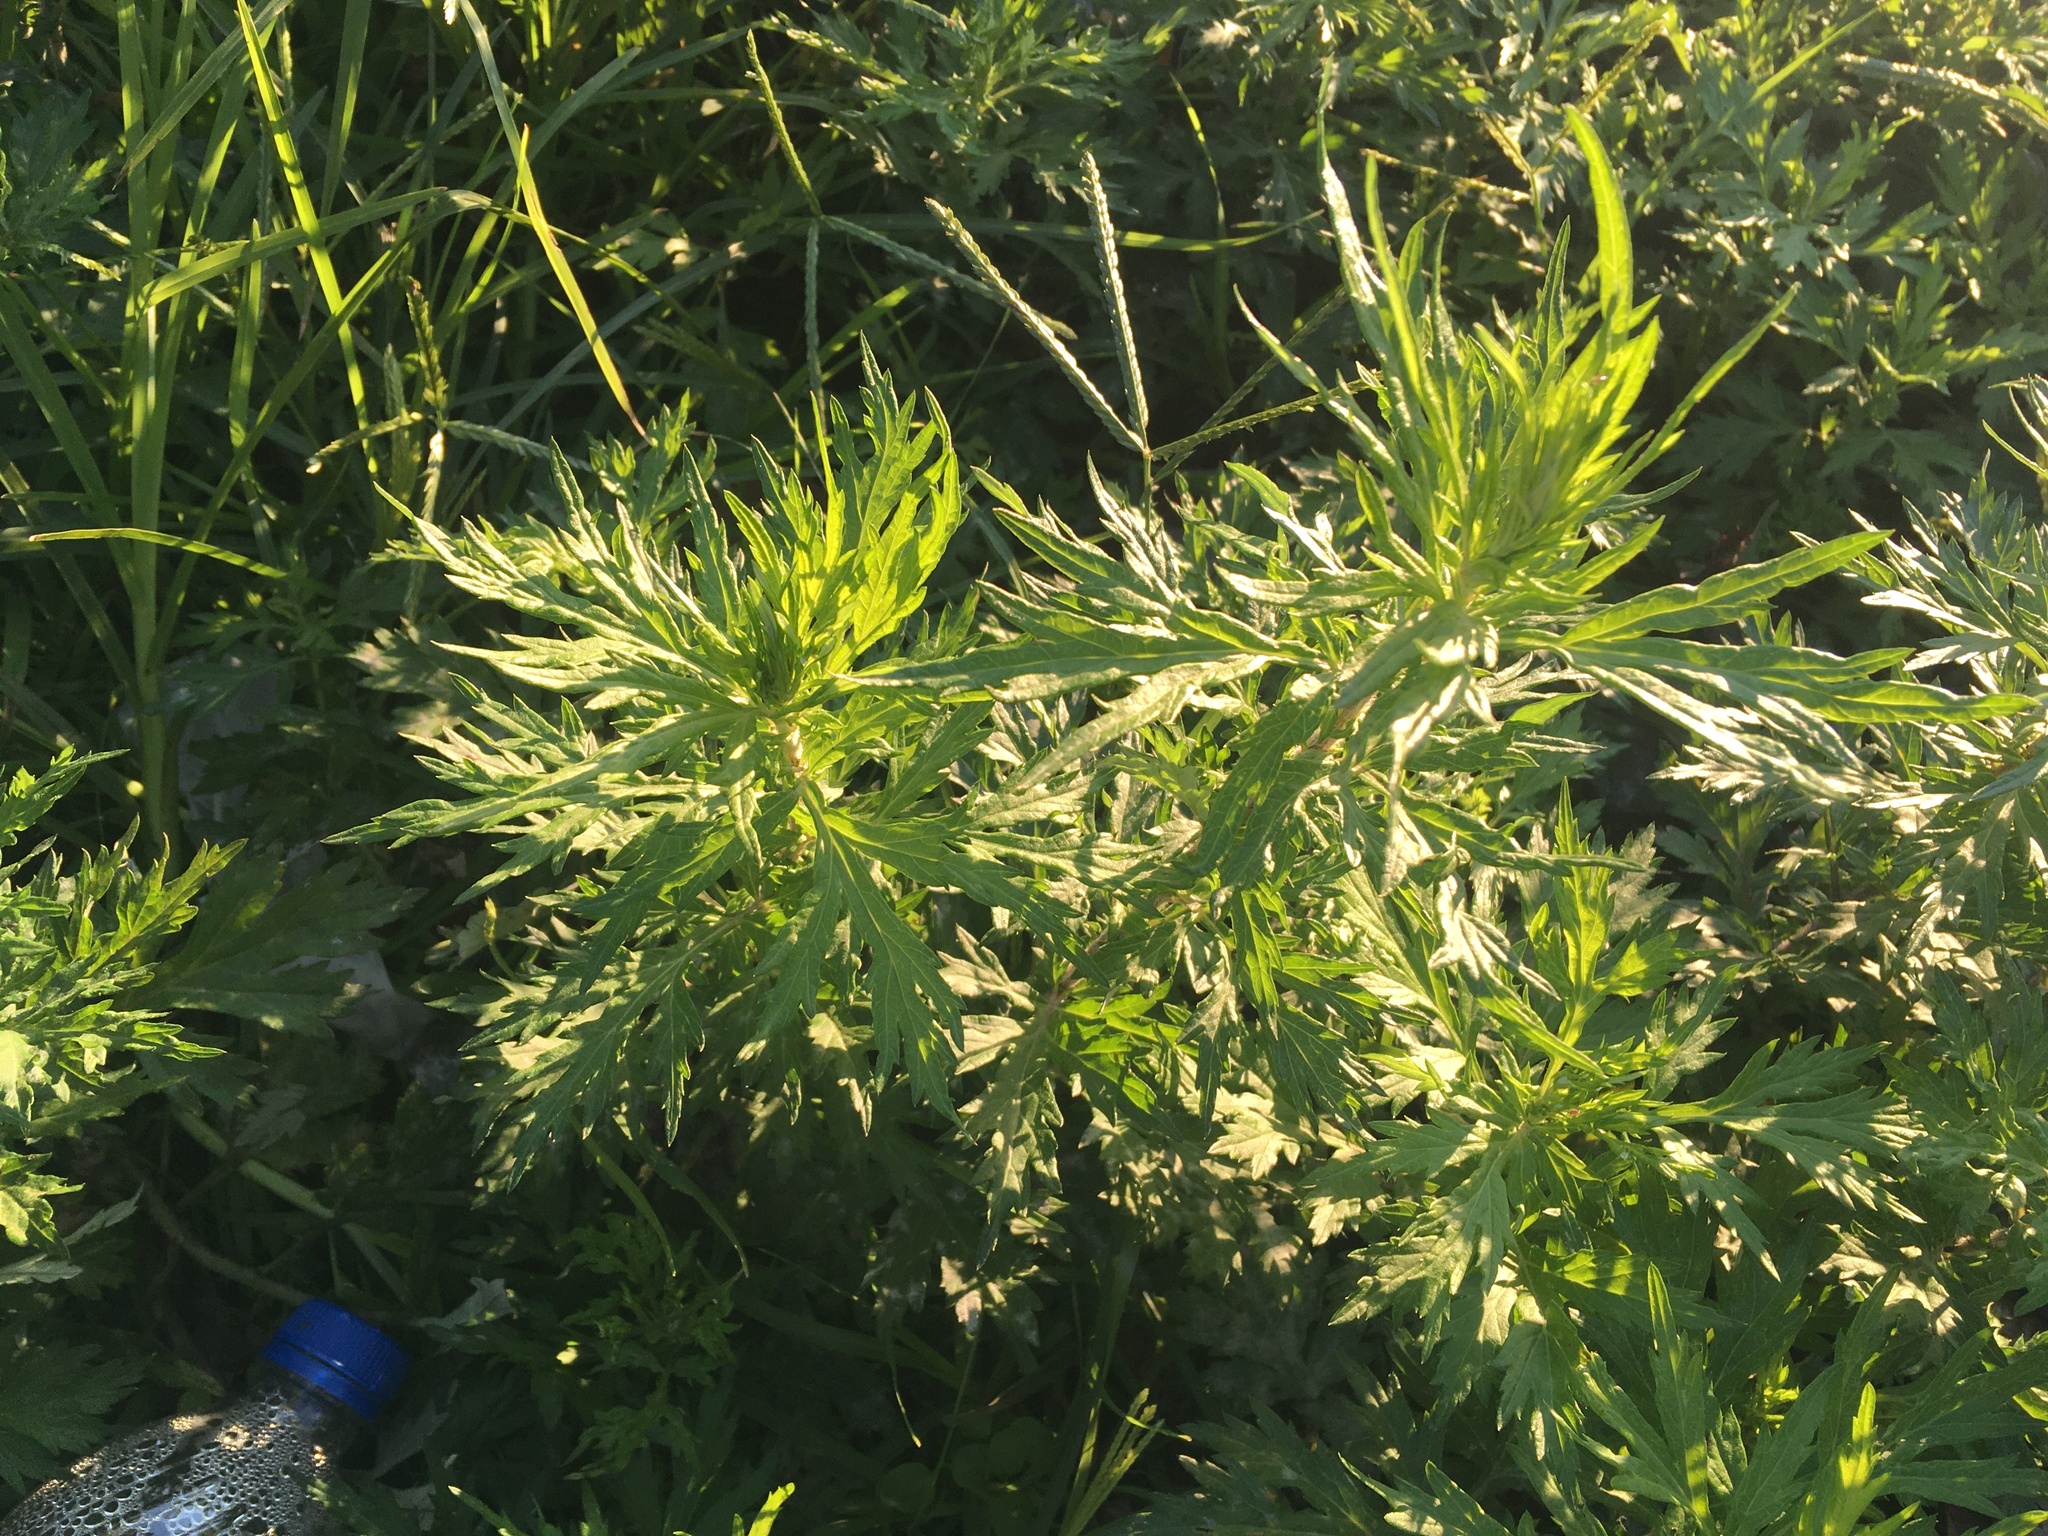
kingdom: Plantae
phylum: Tracheophyta
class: Magnoliopsida
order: Asterales
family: Asteraceae
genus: Artemisia
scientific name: Artemisia vulgaris
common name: Mugwort
